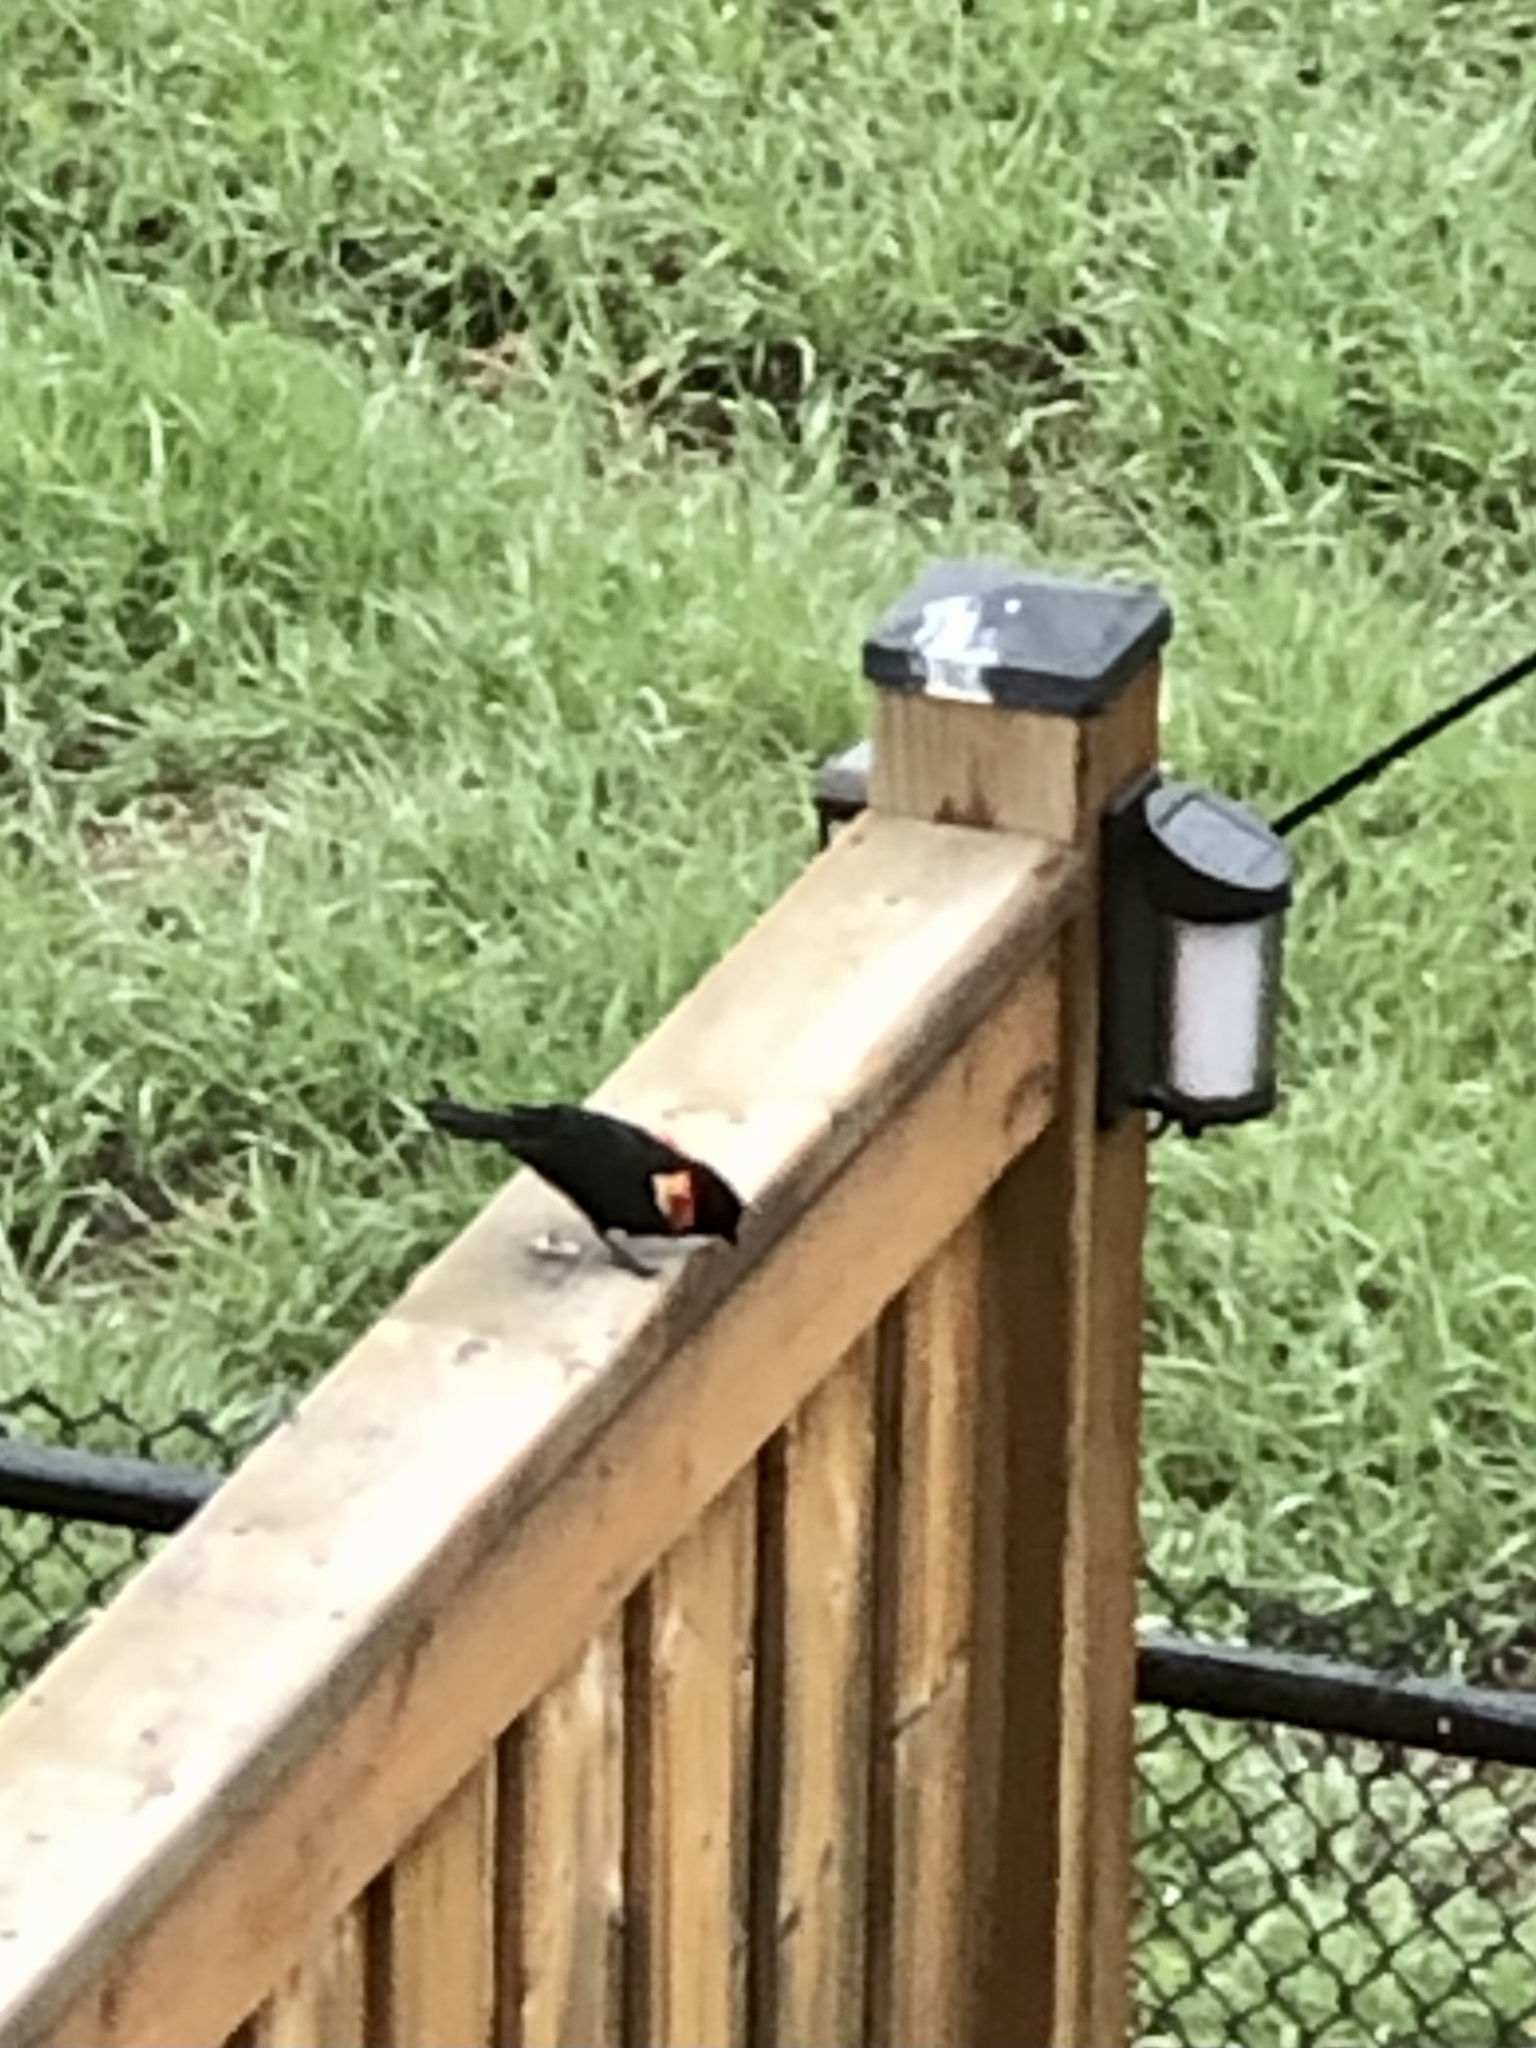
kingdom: Animalia
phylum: Chordata
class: Aves
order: Passeriformes
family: Icteridae
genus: Agelaius
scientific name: Agelaius phoeniceus
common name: Red-winged blackbird
